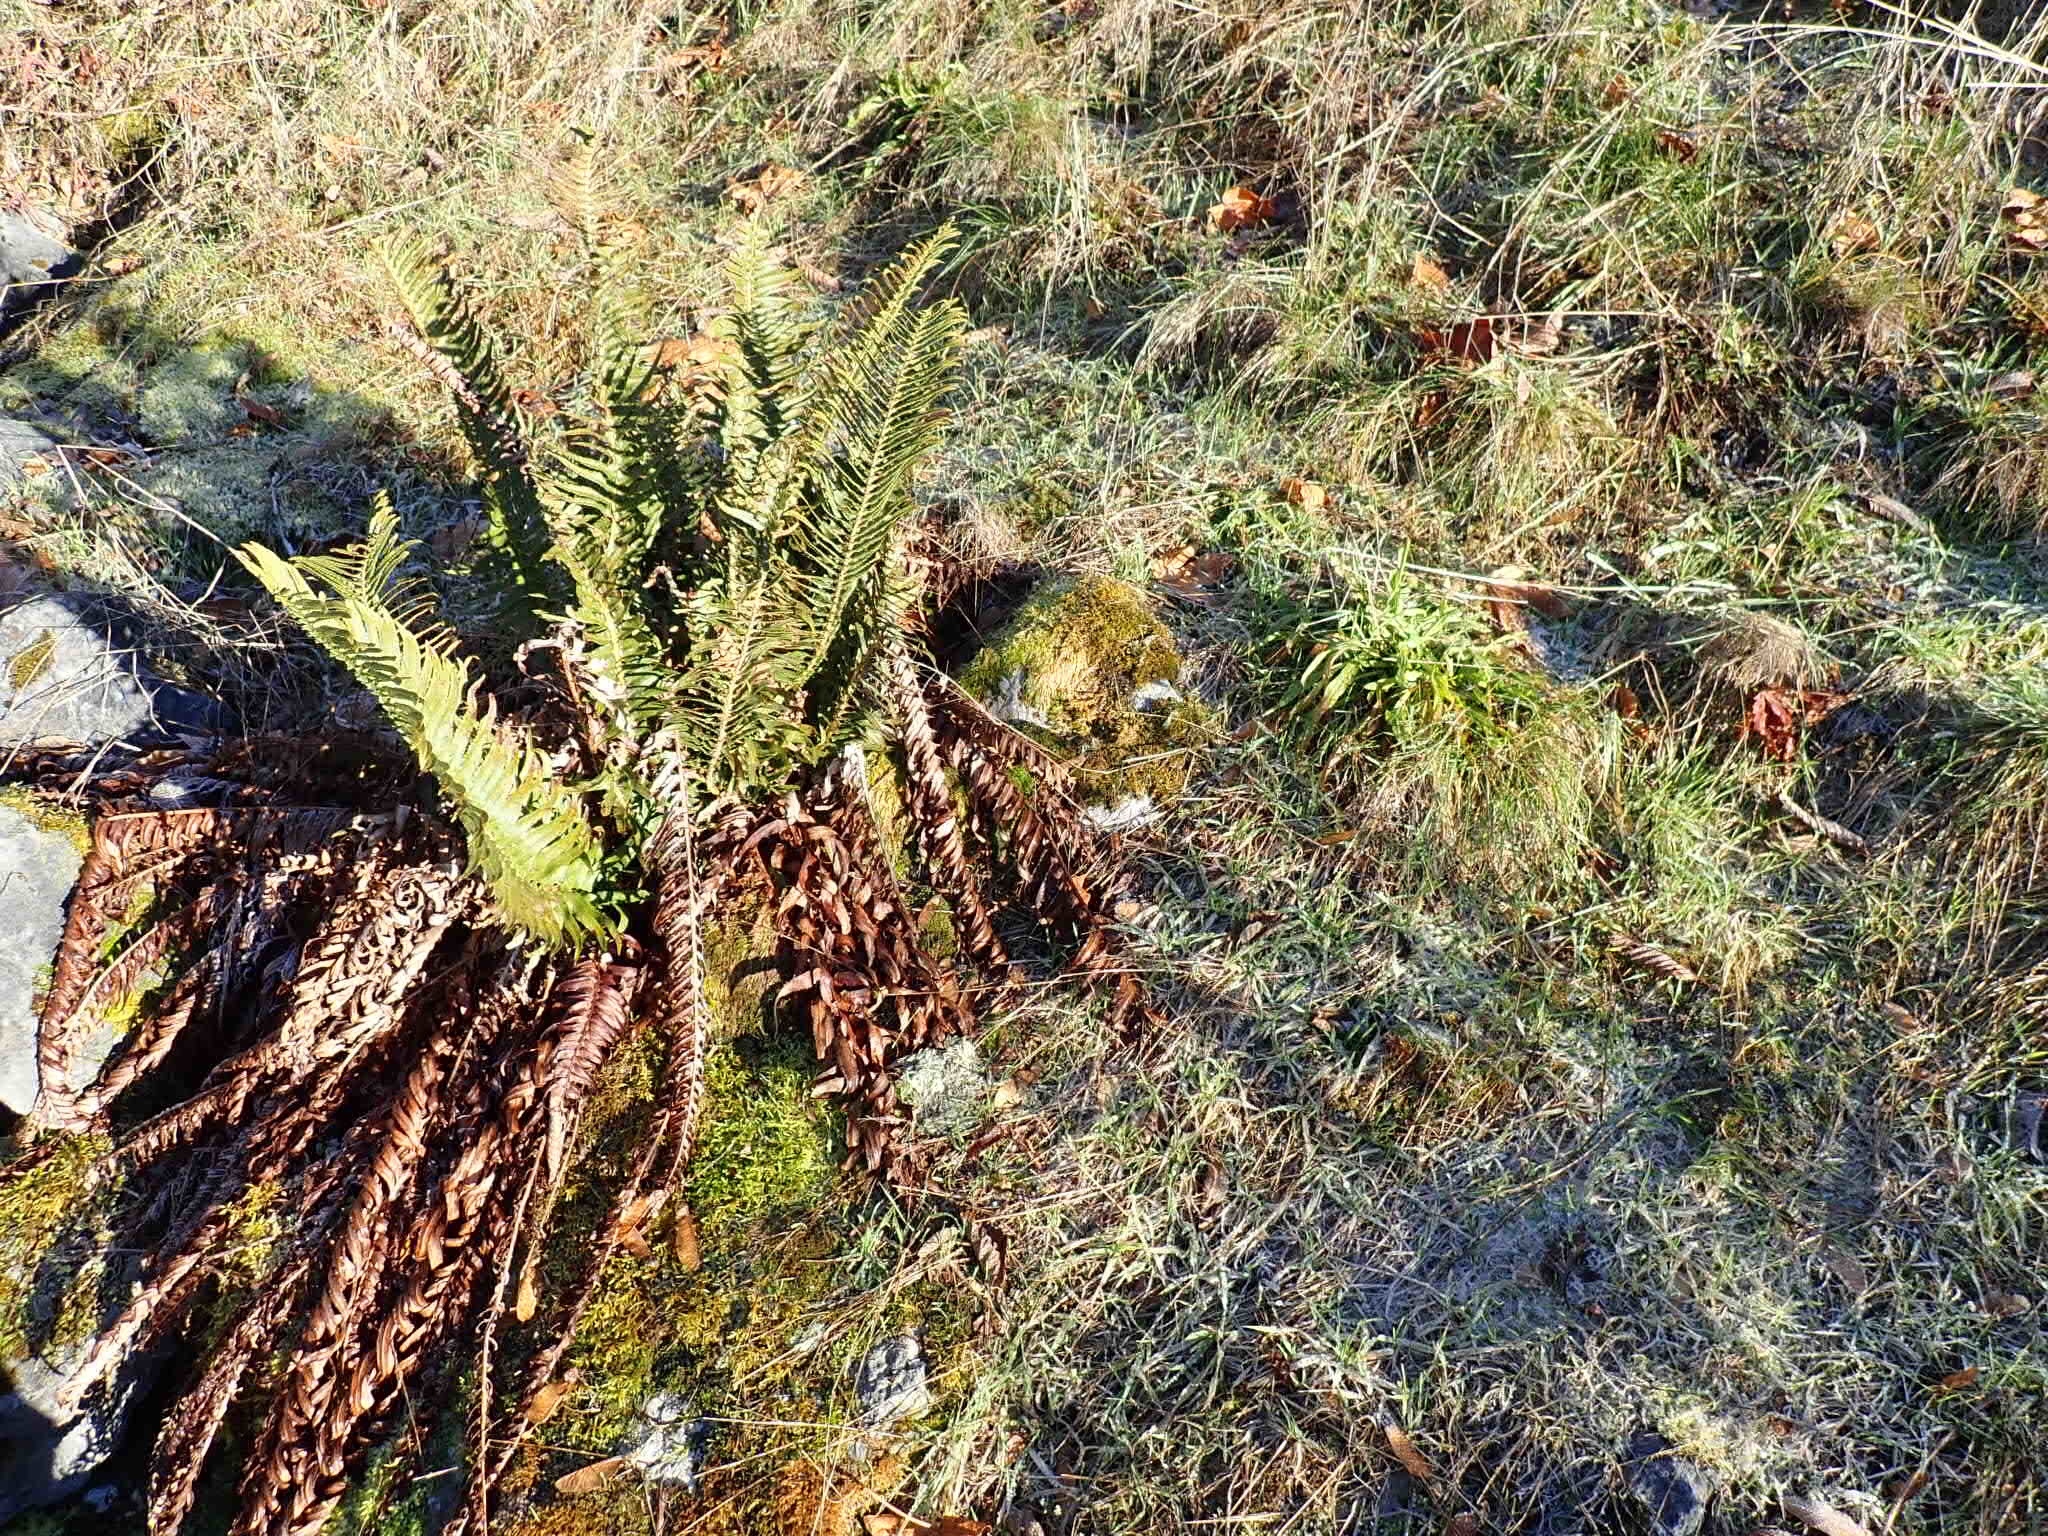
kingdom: Plantae
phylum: Tracheophyta
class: Polypodiopsida
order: Polypodiales
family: Dryopteridaceae
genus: Polystichum
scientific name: Polystichum munitum
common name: Western sword-fern
